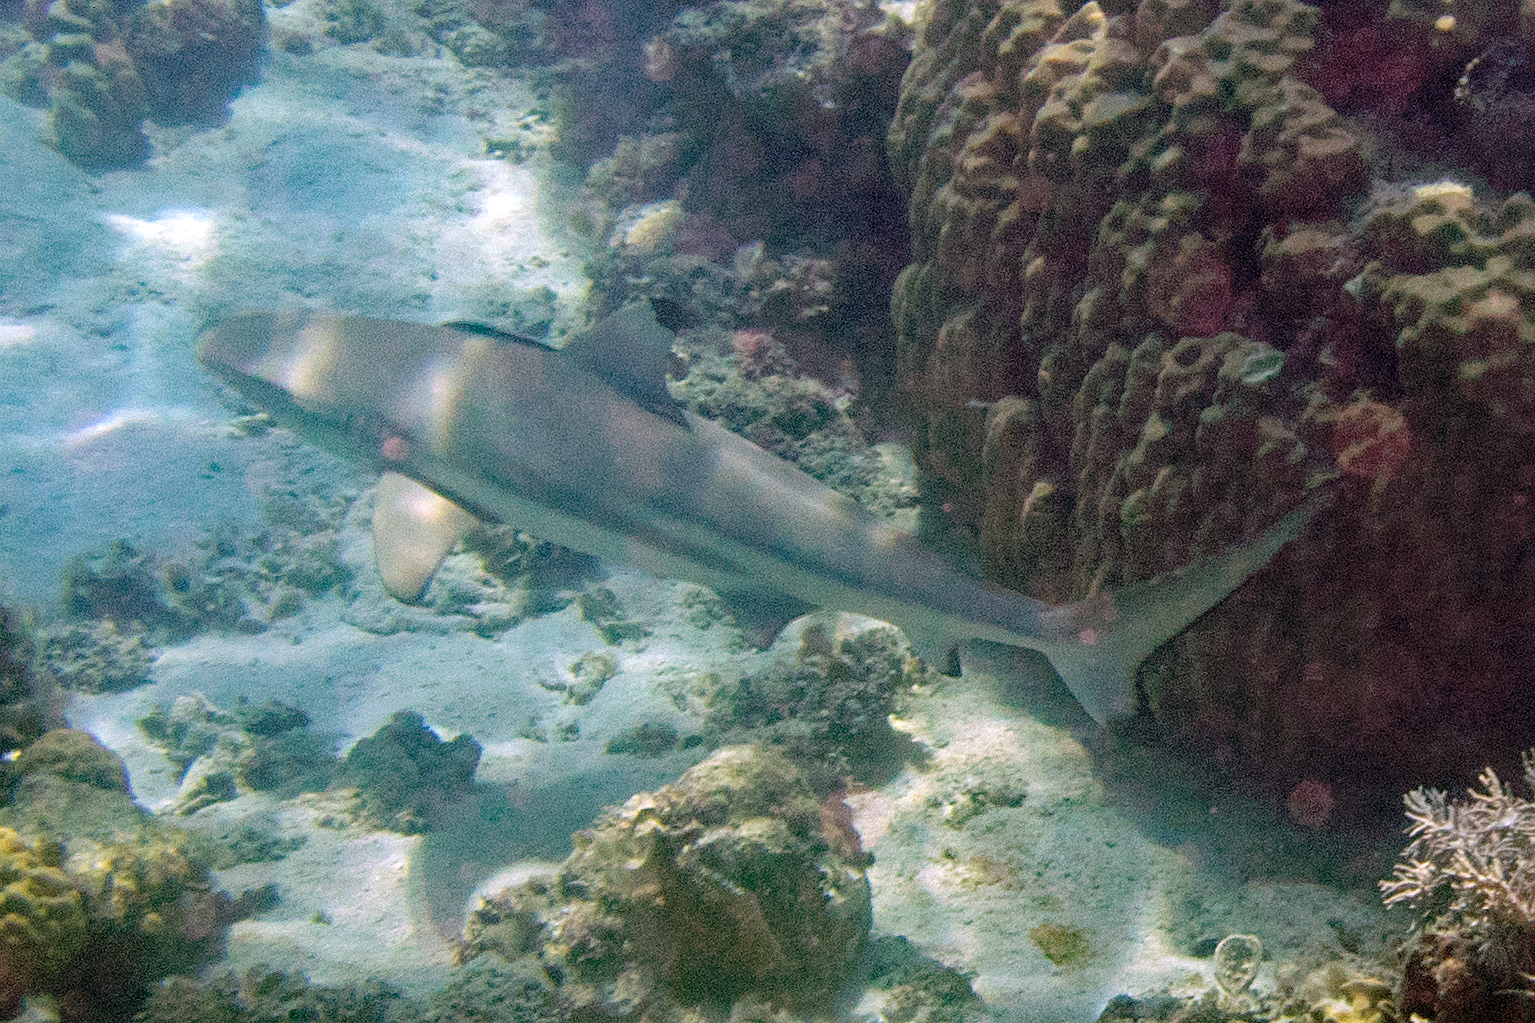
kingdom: Animalia
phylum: Chordata
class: Elasmobranchii
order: Carcharhiniformes
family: Carcharhinidae
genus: Carcharhinus
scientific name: Carcharhinus melanopterus
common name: Blacktip reef shark
